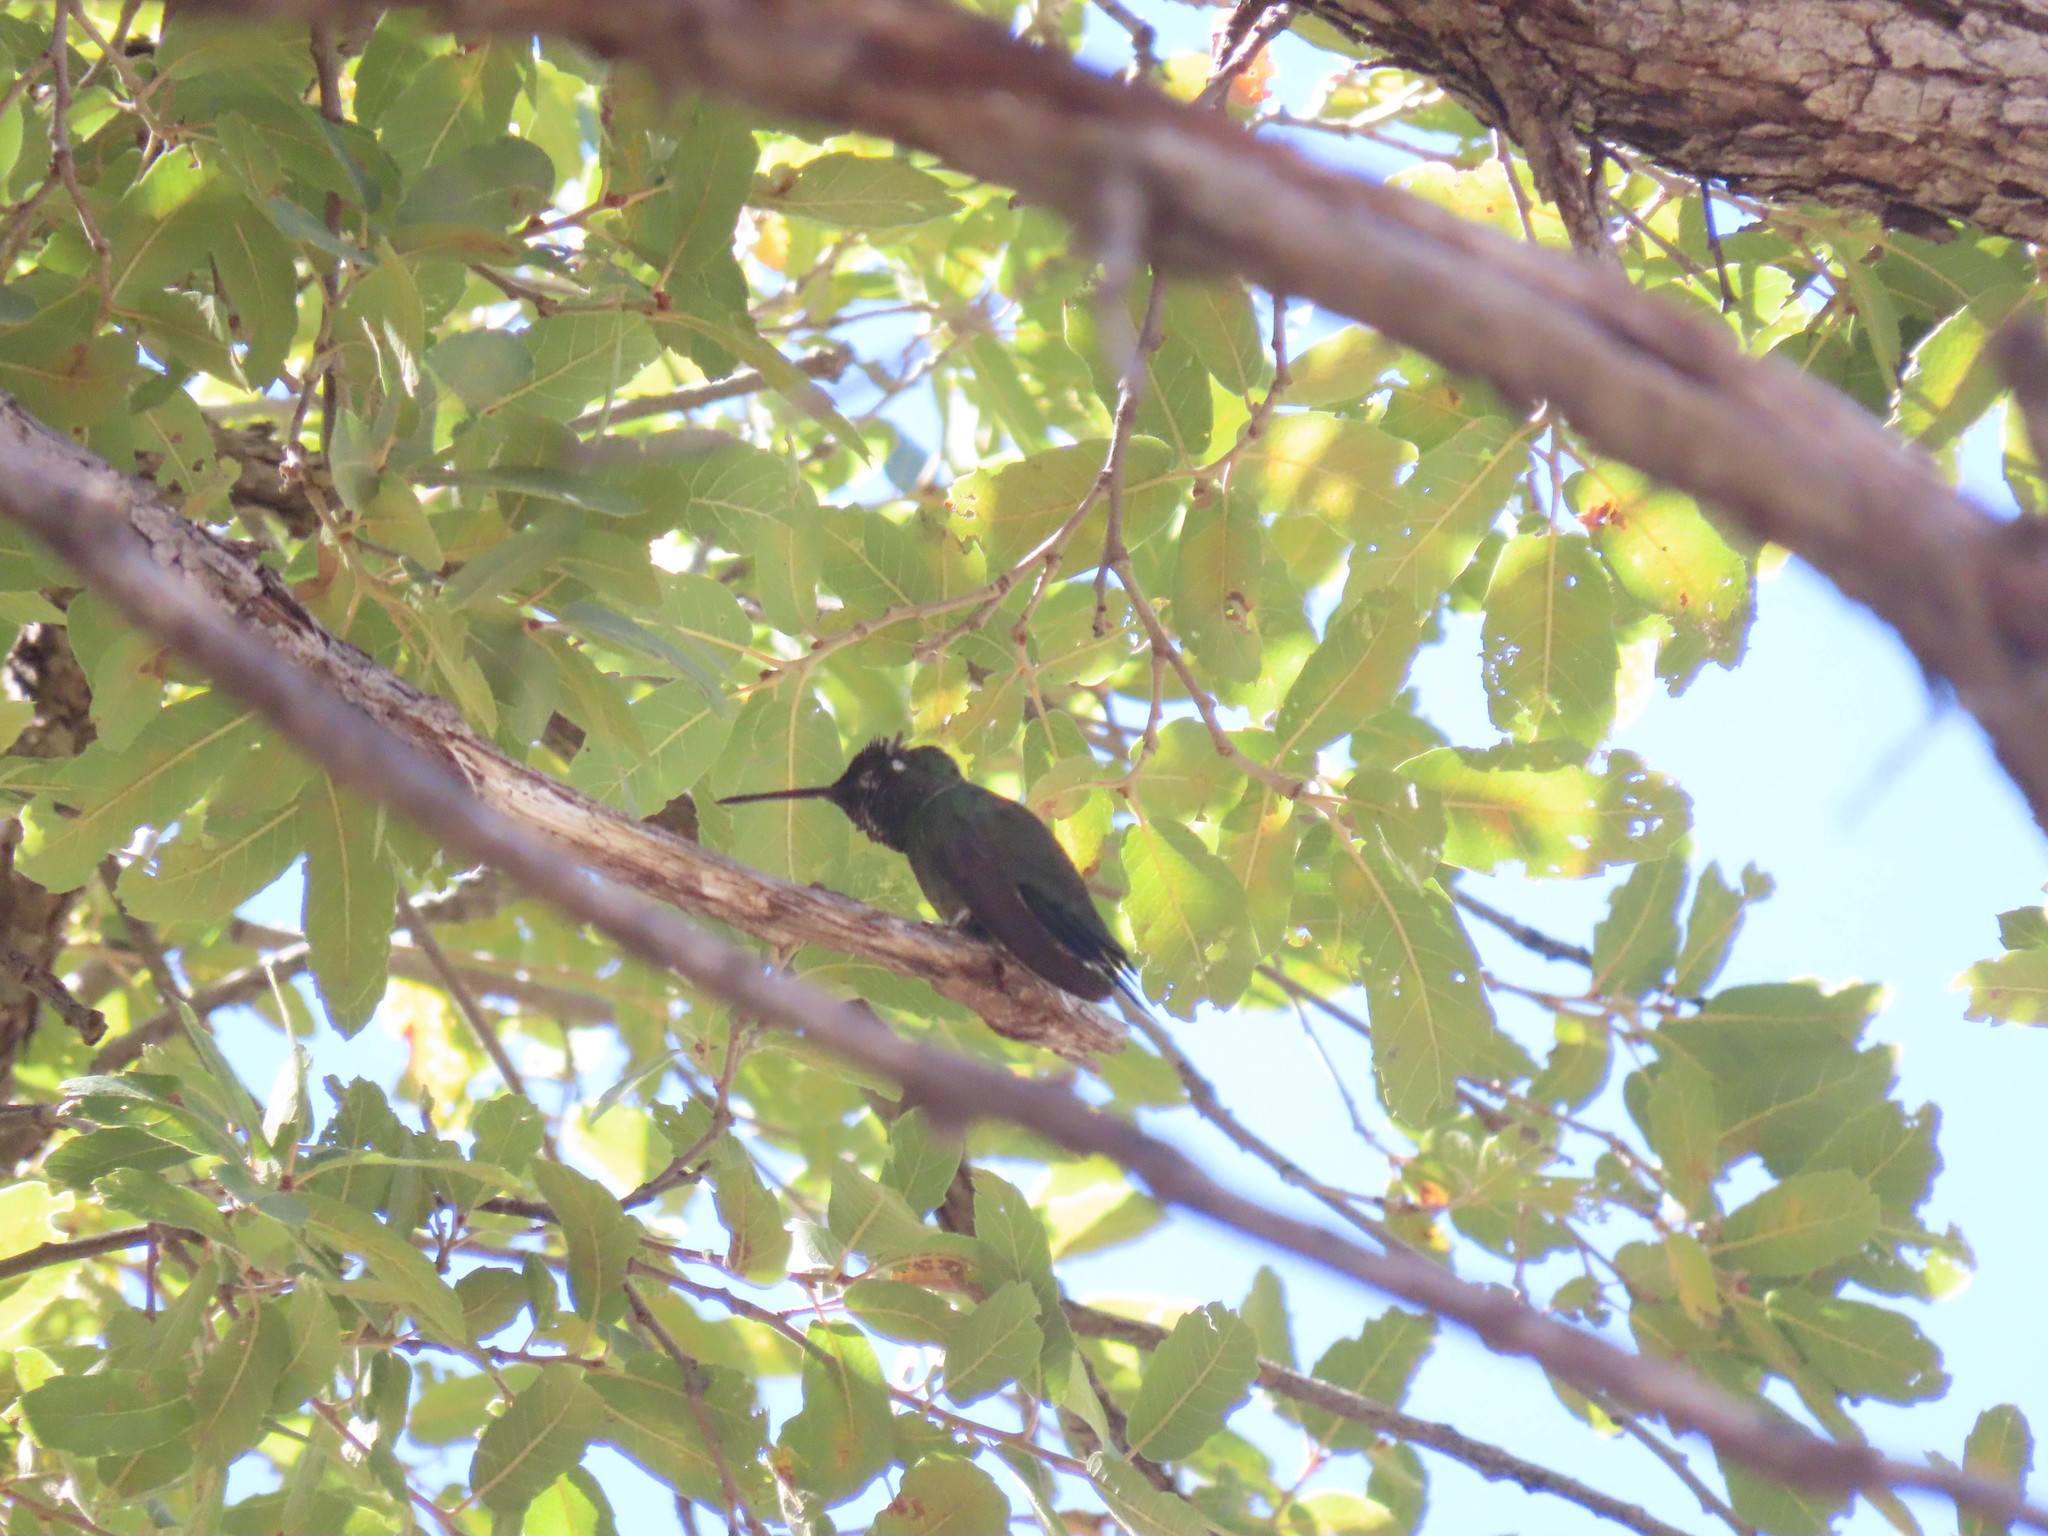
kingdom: Animalia
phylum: Chordata
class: Aves
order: Apodiformes
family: Trochilidae
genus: Eugenes
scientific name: Eugenes fulgens
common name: Magnificent hummingbird
